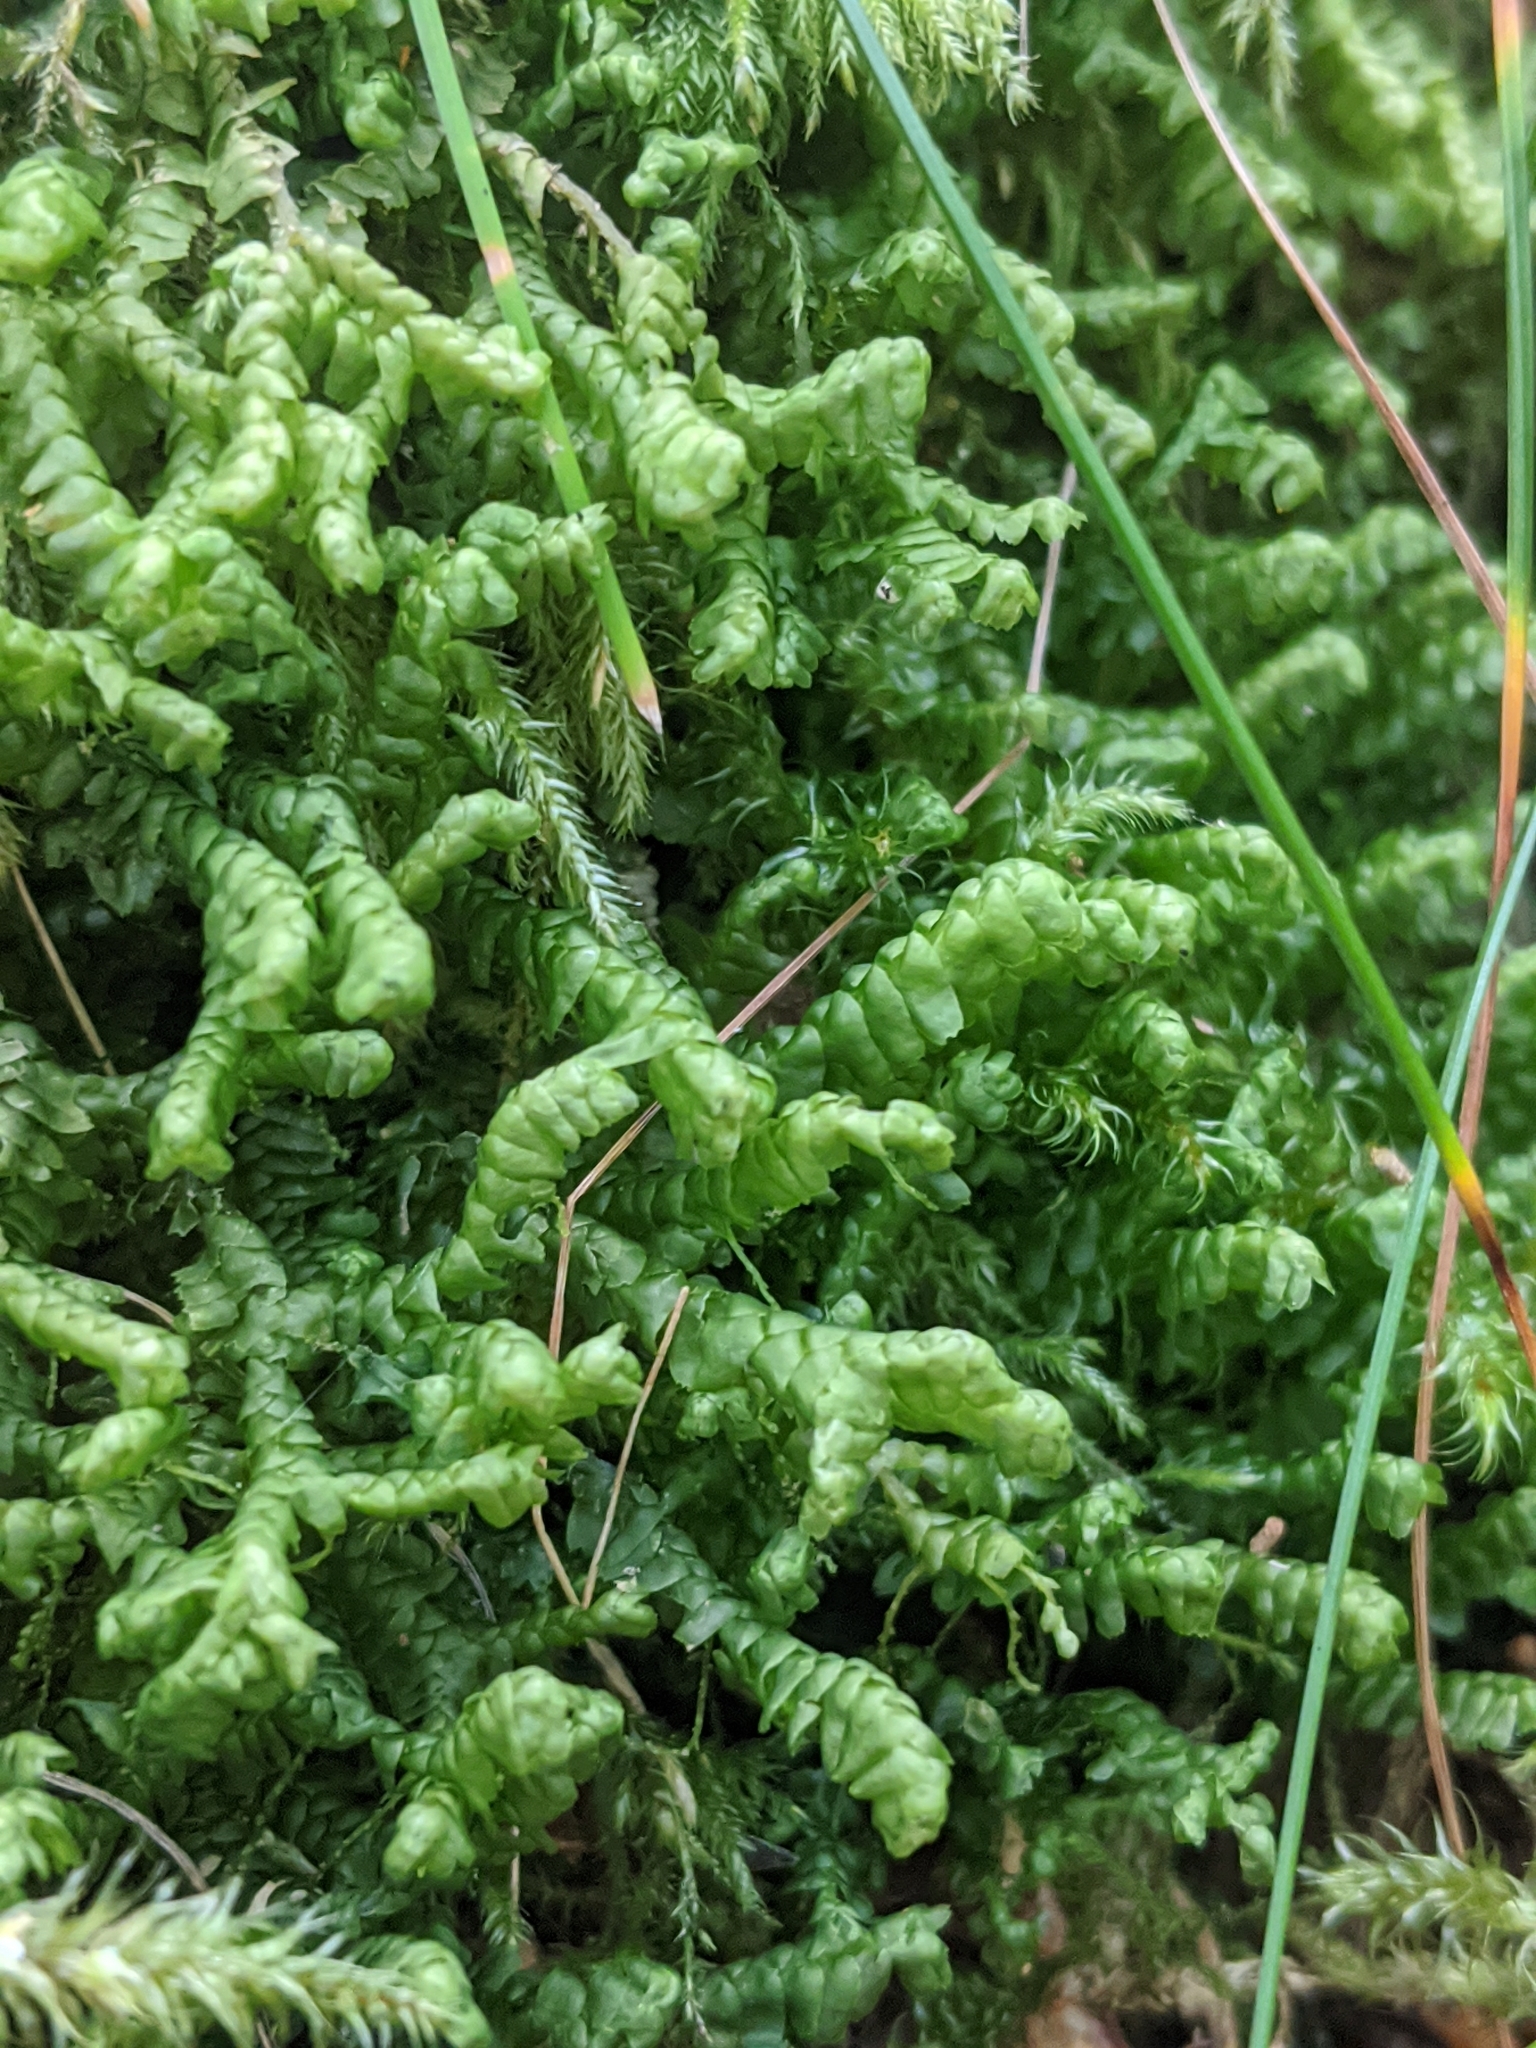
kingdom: Plantae
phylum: Marchantiophyta
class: Jungermanniopsida
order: Jungermanniales
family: Lepidoziaceae
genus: Bazzania
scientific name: Bazzania trilobata
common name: Three-lobed whipwort
